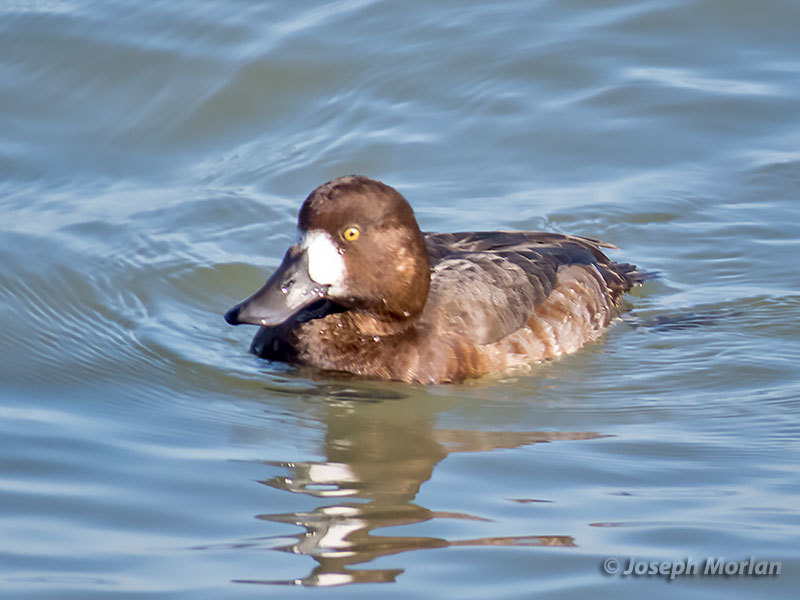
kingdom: Animalia
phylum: Chordata
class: Aves
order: Anseriformes
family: Anatidae
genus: Aythya
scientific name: Aythya marila
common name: Greater scaup
